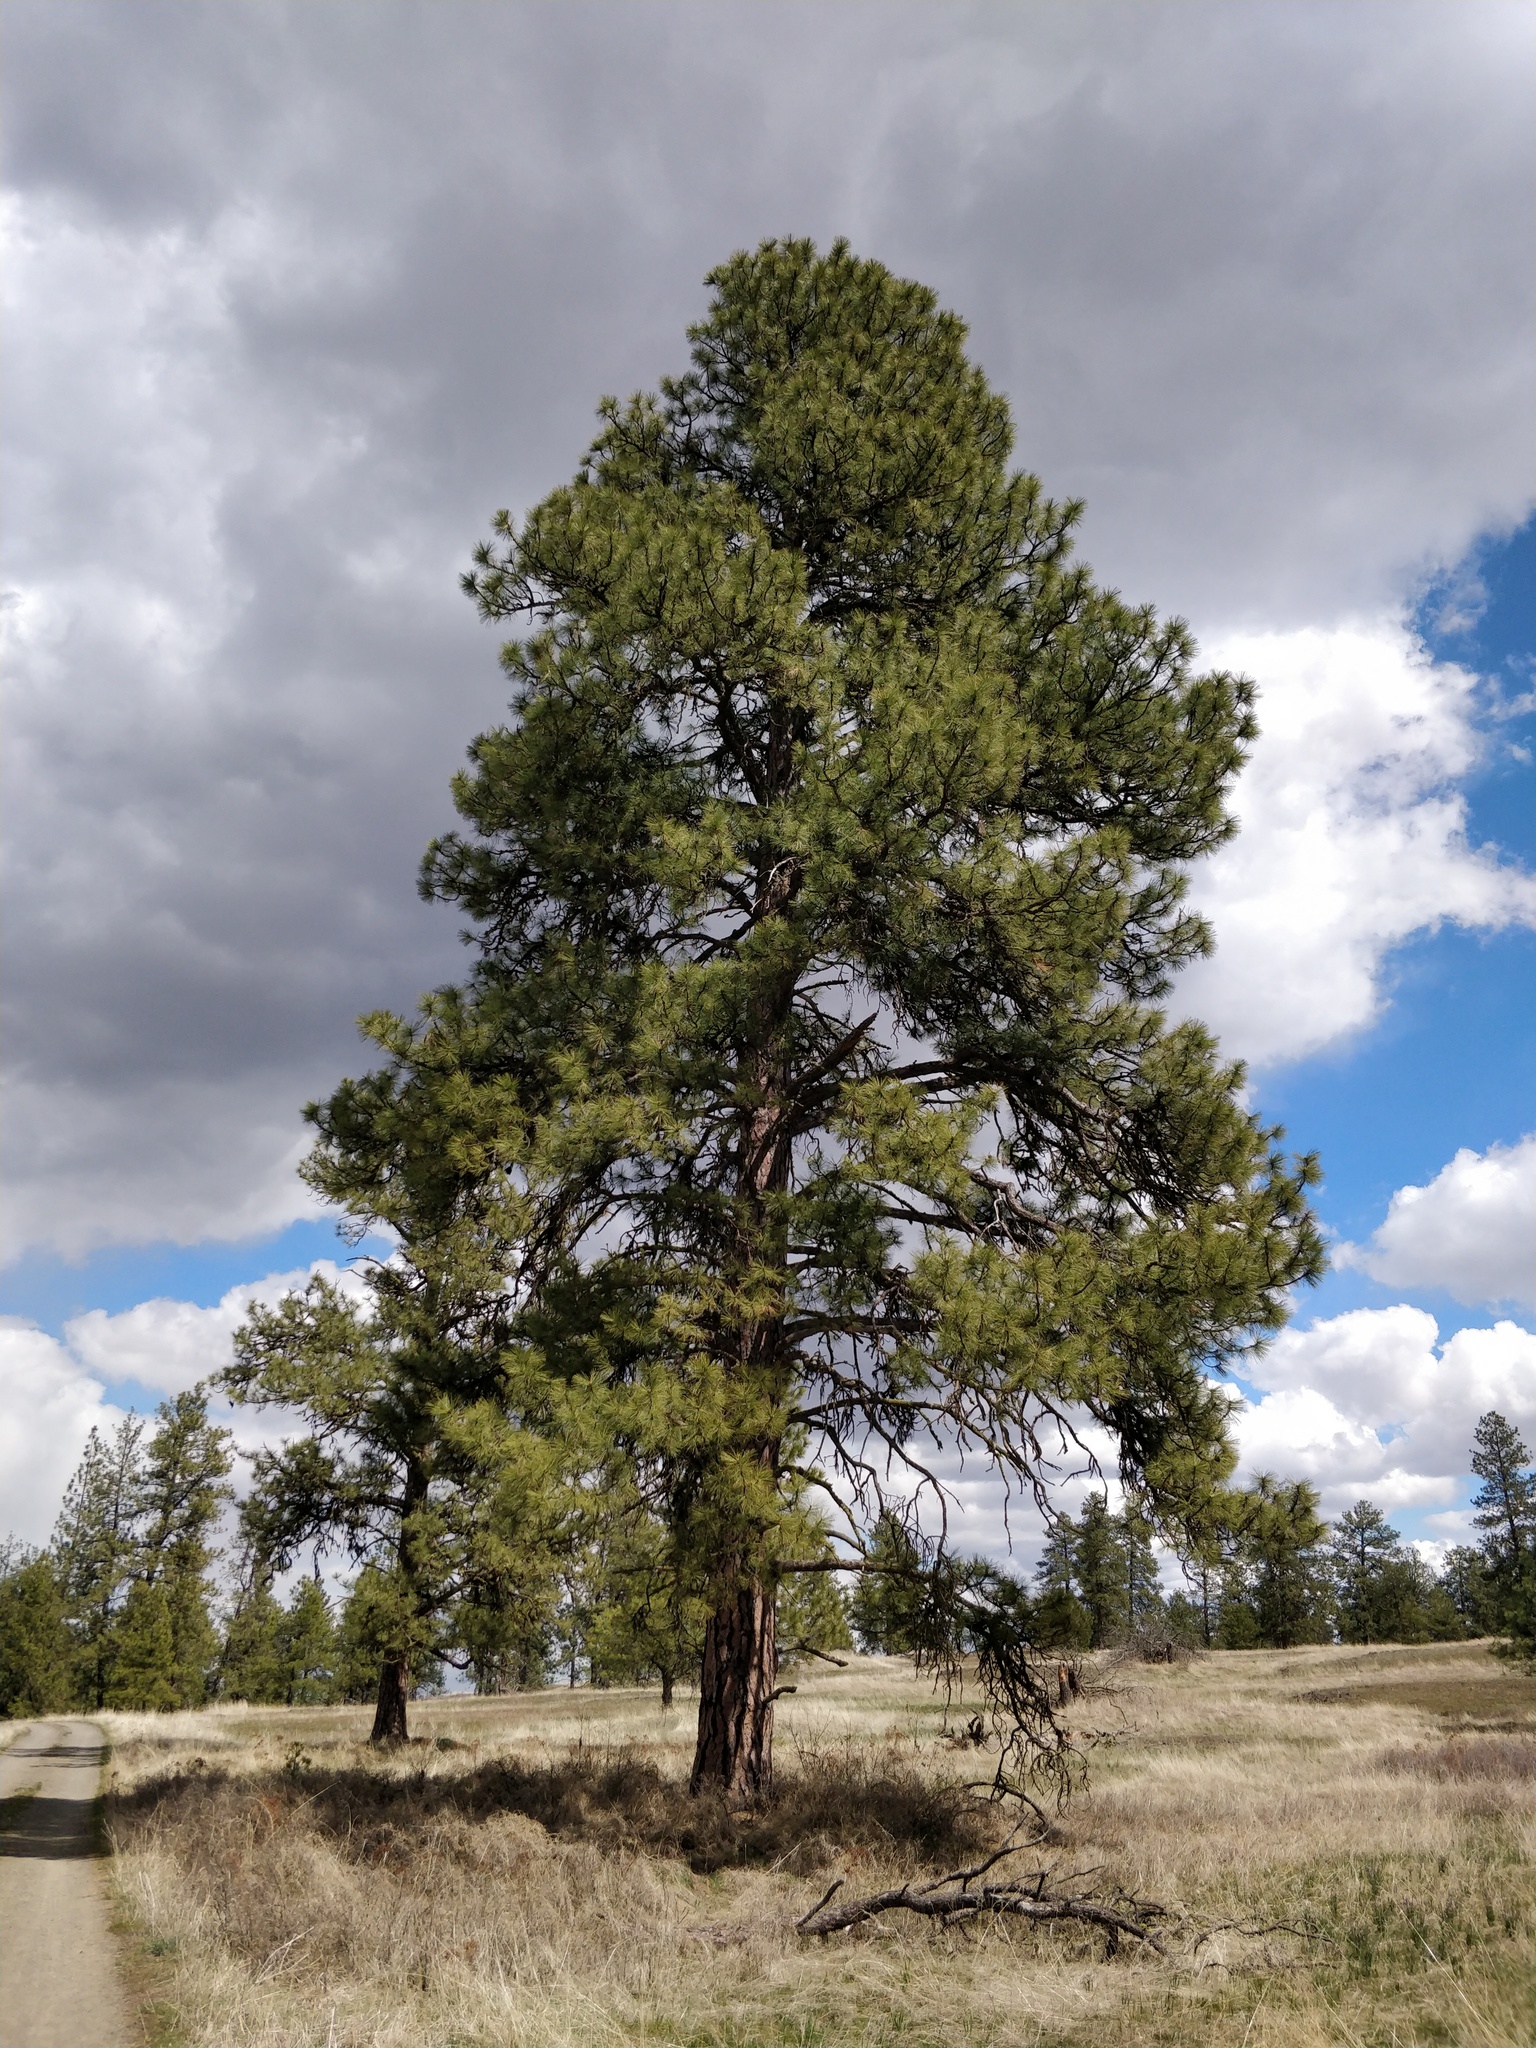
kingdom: Plantae
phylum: Tracheophyta
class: Pinopsida
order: Pinales
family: Pinaceae
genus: Pinus
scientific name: Pinus ponderosa
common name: Western yellow-pine
